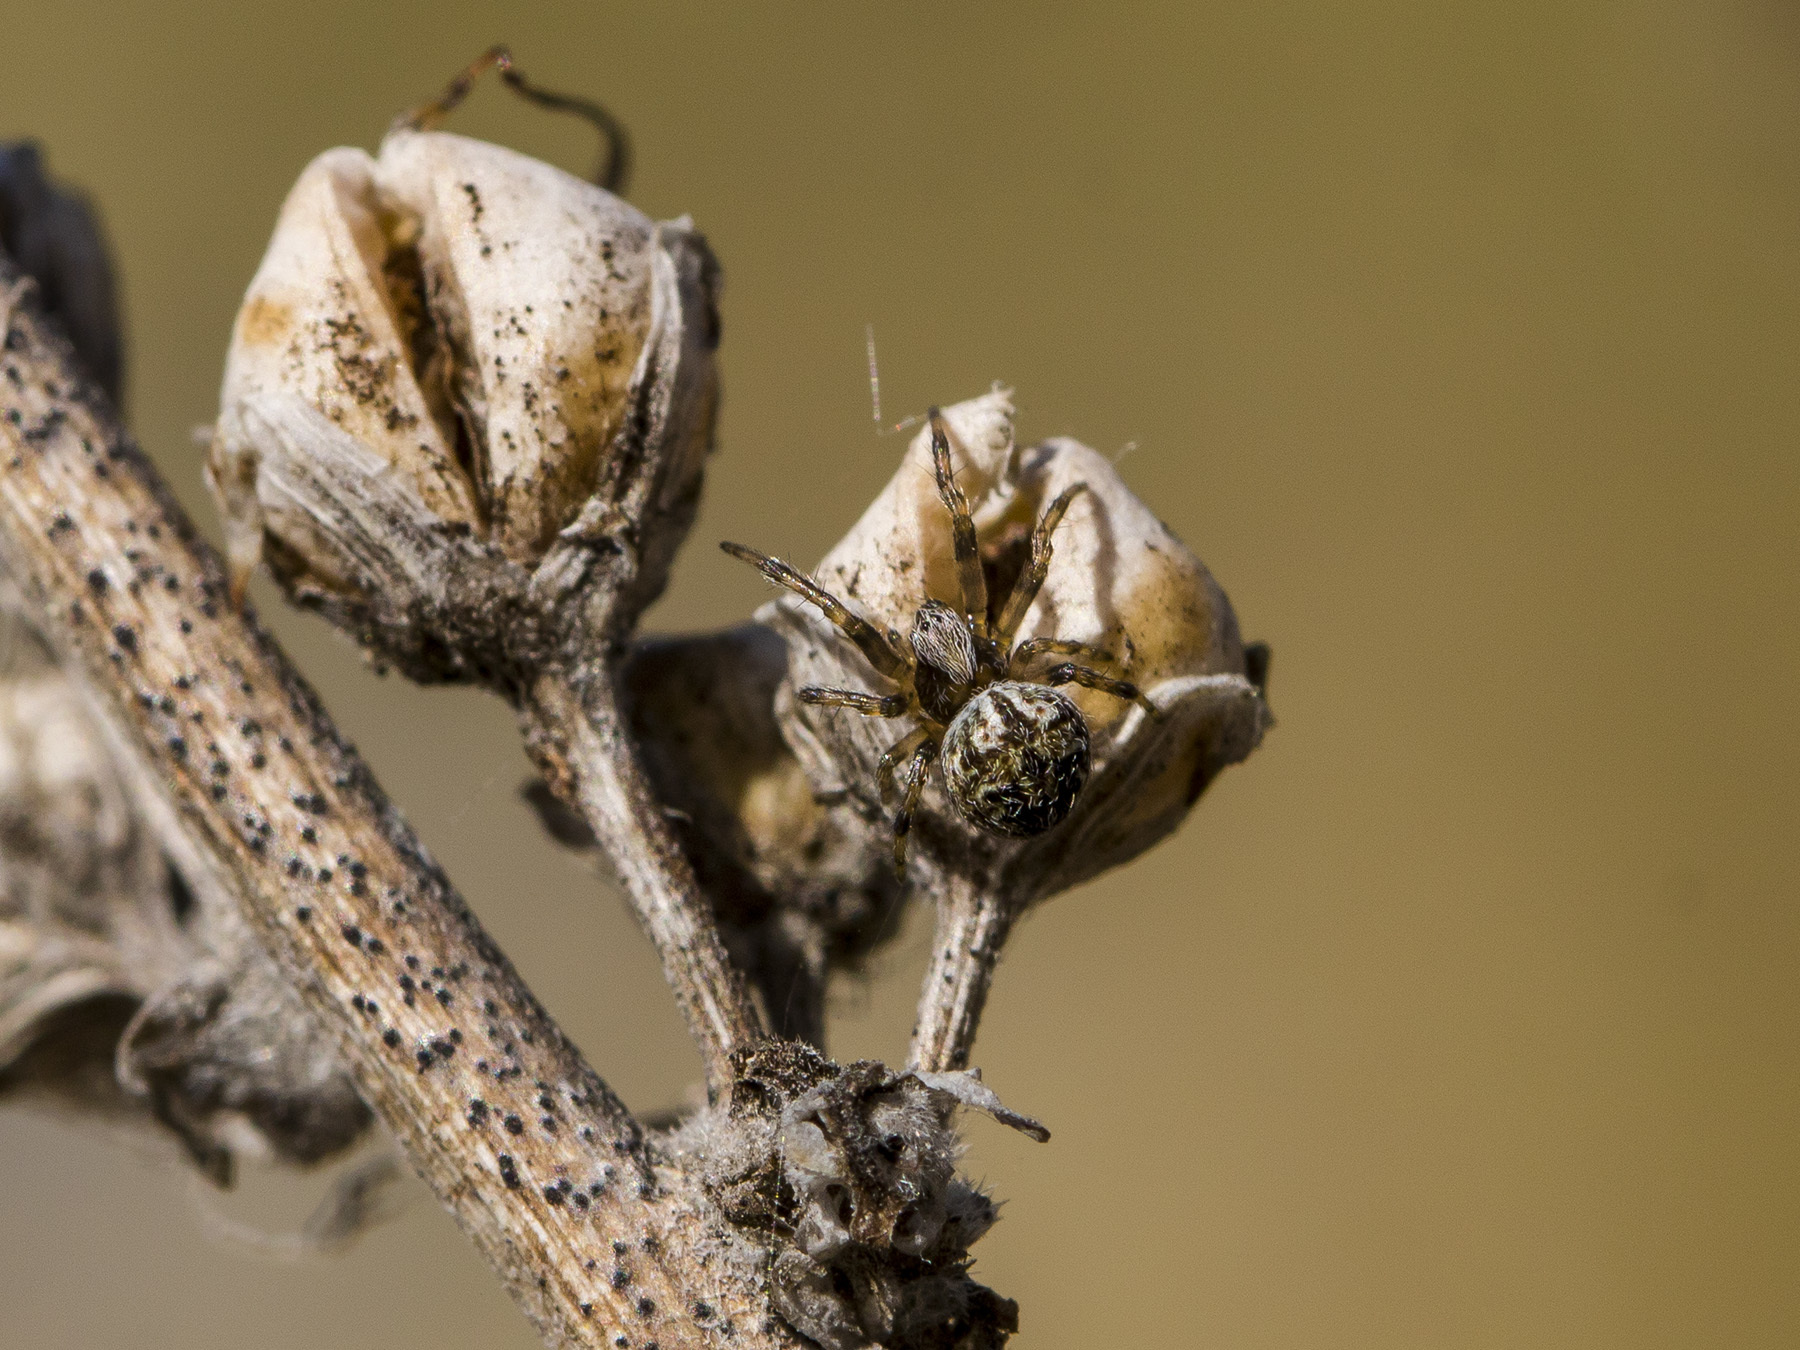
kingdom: Animalia
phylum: Arthropoda
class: Arachnida
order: Araneae
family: Araneidae
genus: Agalenatea
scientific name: Agalenatea redii
